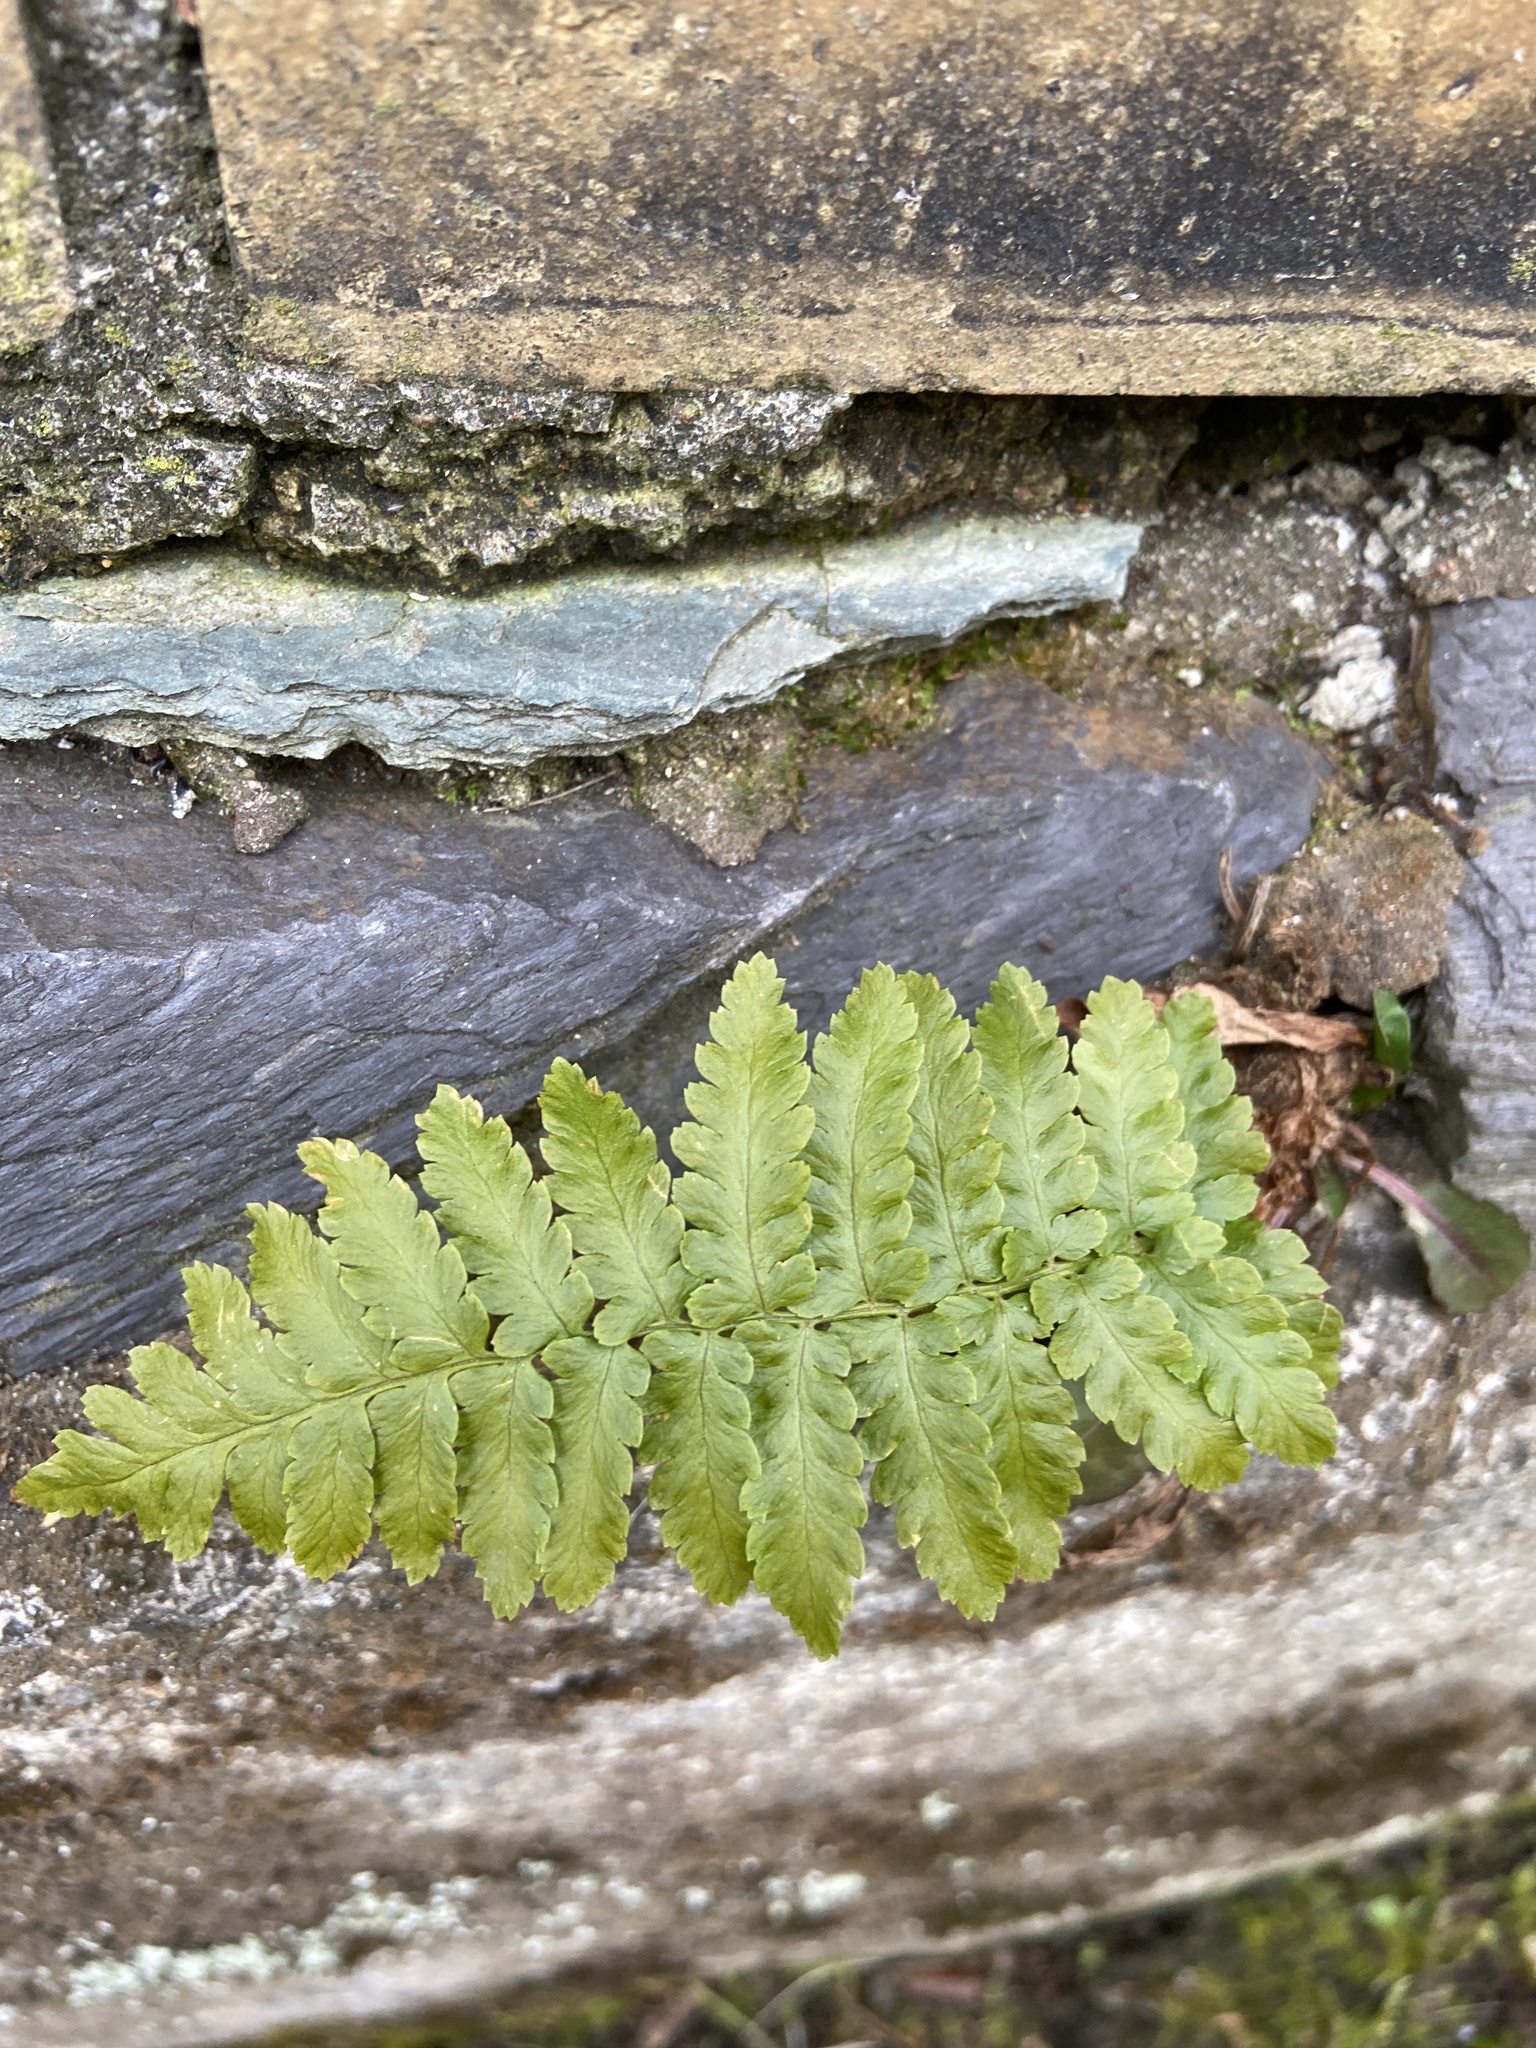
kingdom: Plantae
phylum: Tracheophyta
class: Polypodiopsida
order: Polypodiales
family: Dryopteridaceae
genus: Dryopteris
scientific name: Dryopteris filix-mas
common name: Male fern
